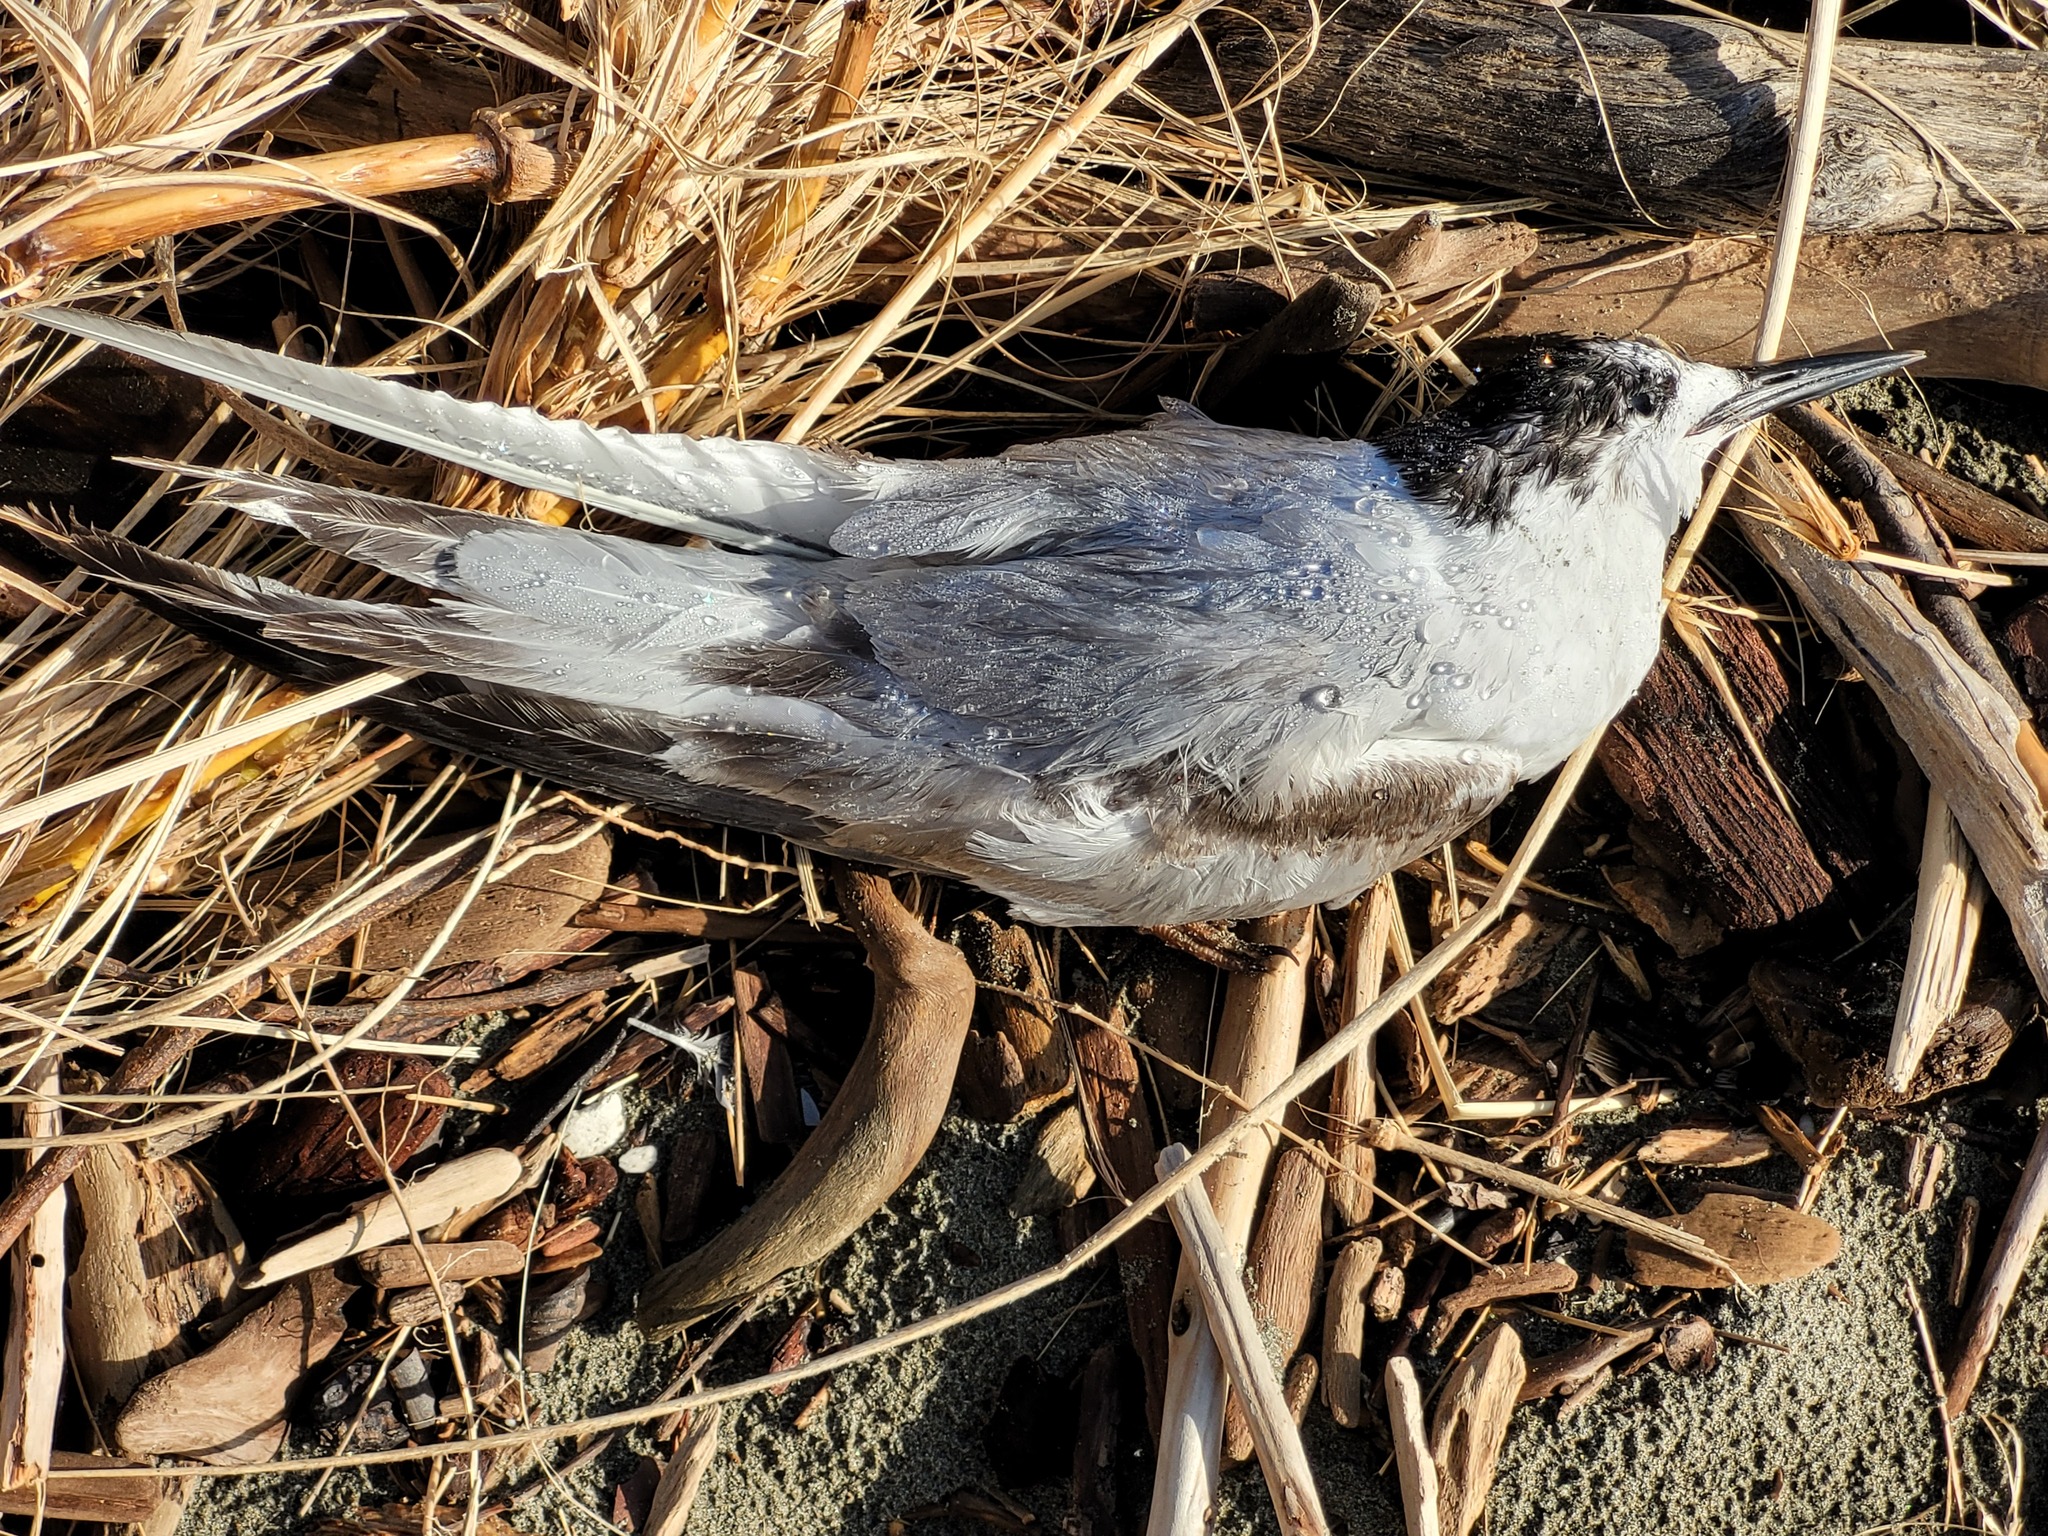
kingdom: Animalia
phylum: Chordata
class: Aves
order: Charadriiformes
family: Laridae
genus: Sterna
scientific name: Sterna striata
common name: White-fronted tern
